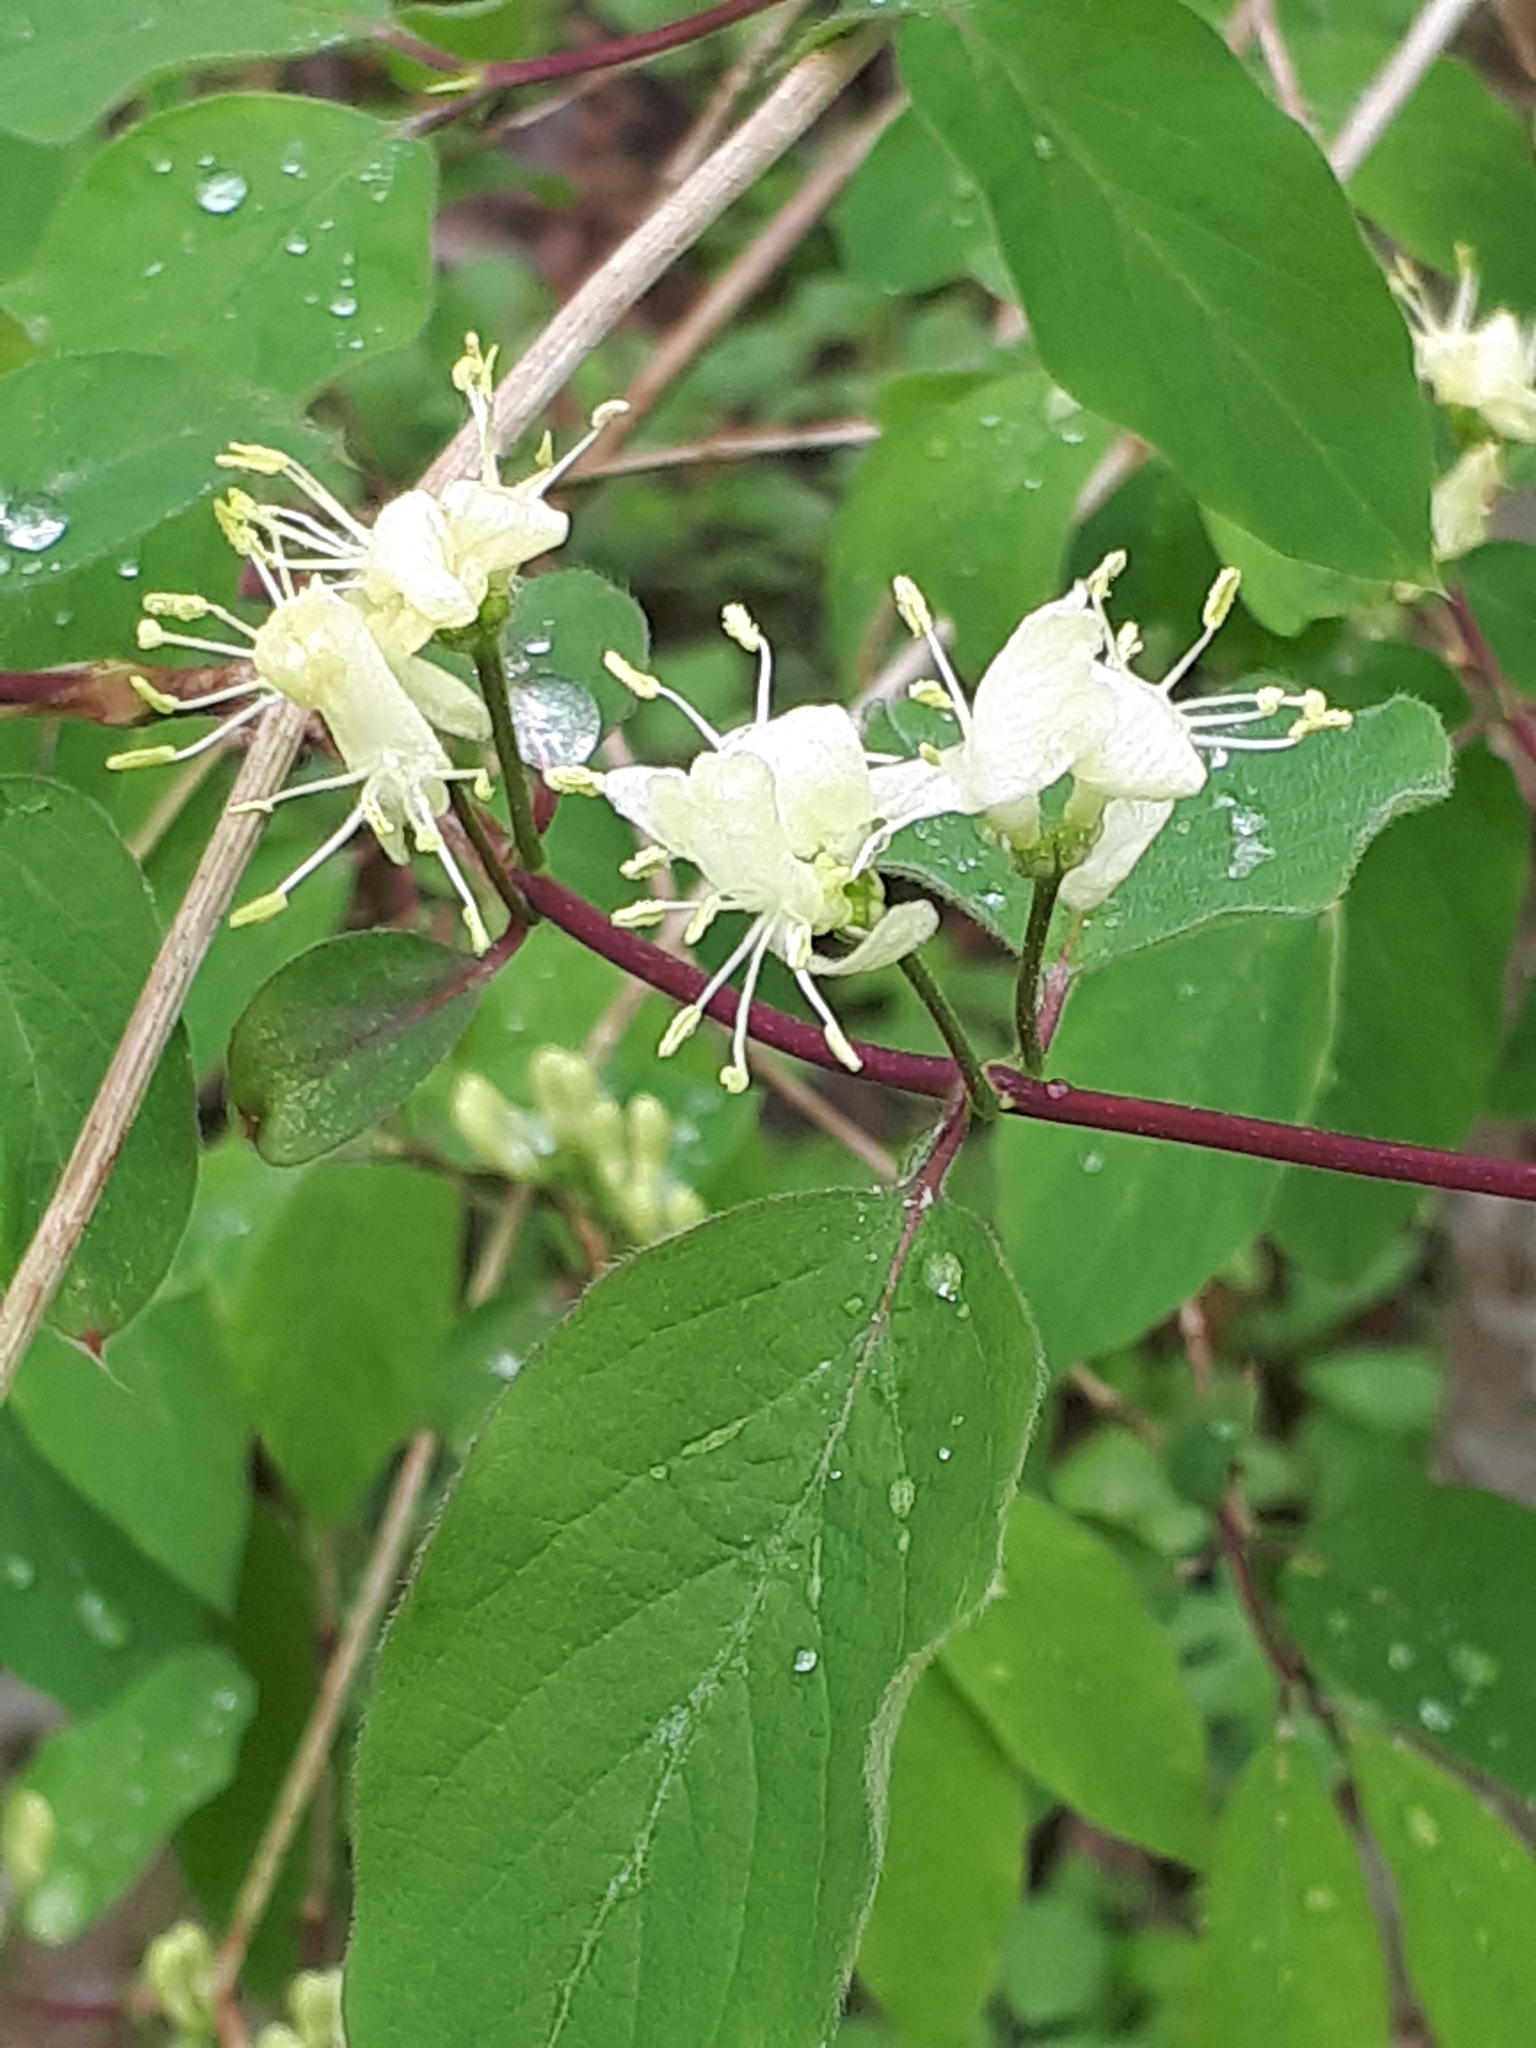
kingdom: Plantae
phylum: Tracheophyta
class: Magnoliopsida
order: Dipsacales
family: Caprifoliaceae
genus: Lonicera
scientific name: Lonicera xylosteum
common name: Fly honeysuckle
